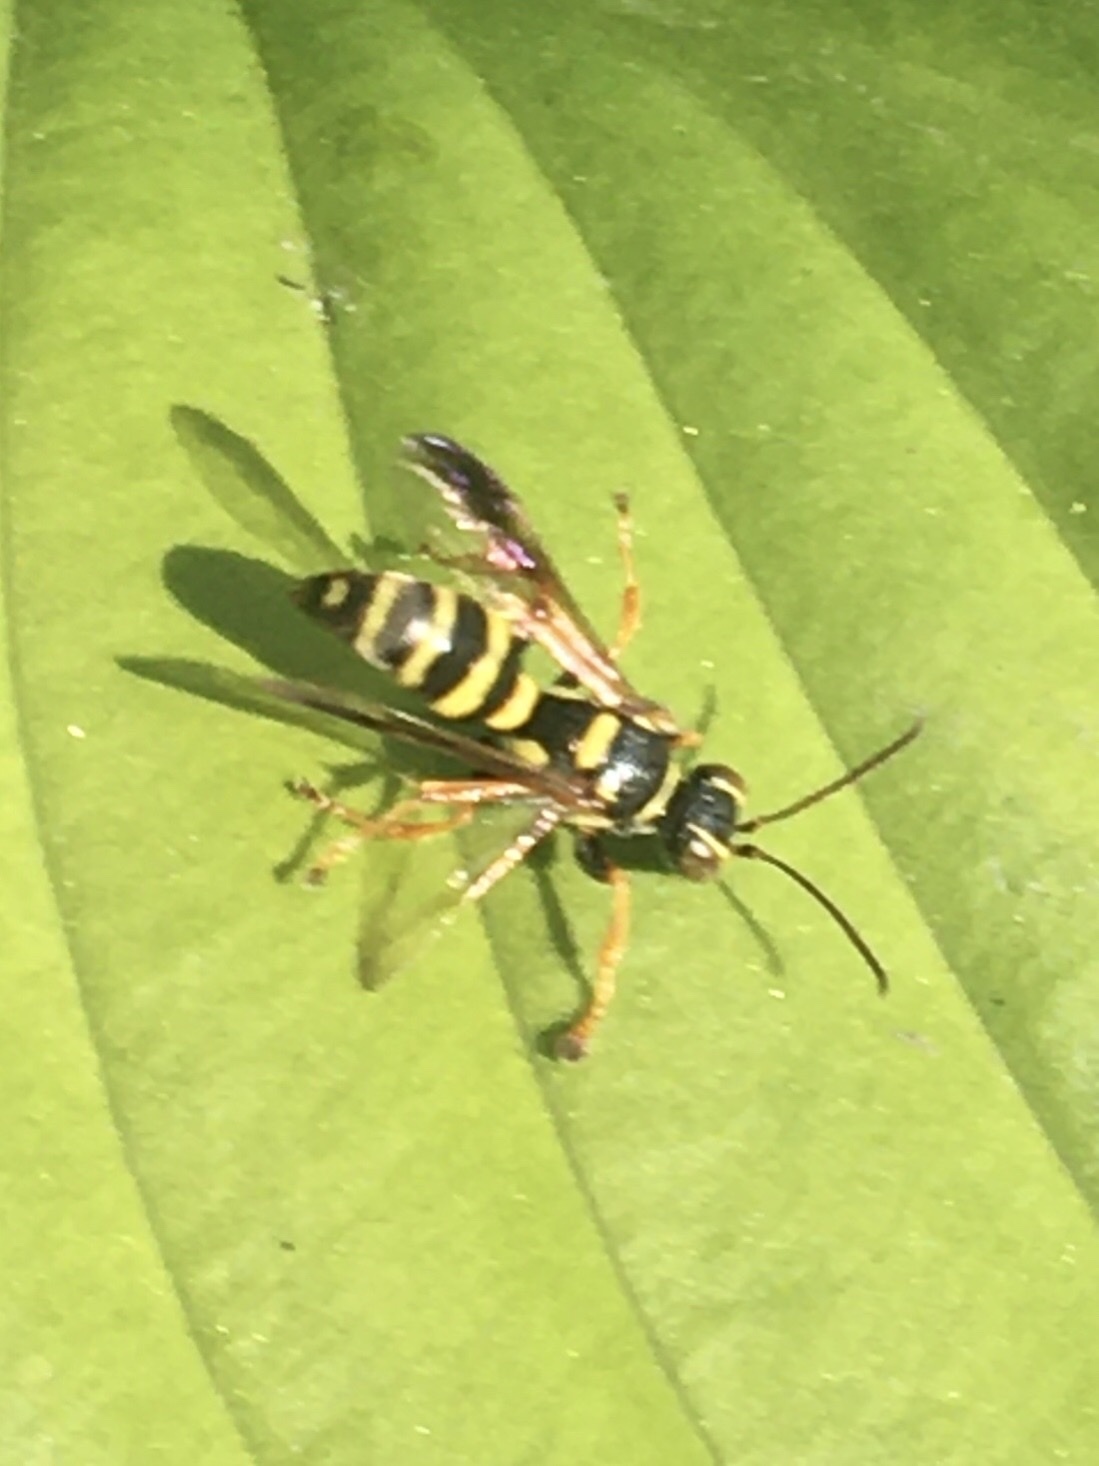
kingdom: Animalia
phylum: Arthropoda
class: Insecta
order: Hymenoptera
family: Crabronidae
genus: Psammaletes
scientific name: Psammaletes mexicanus
